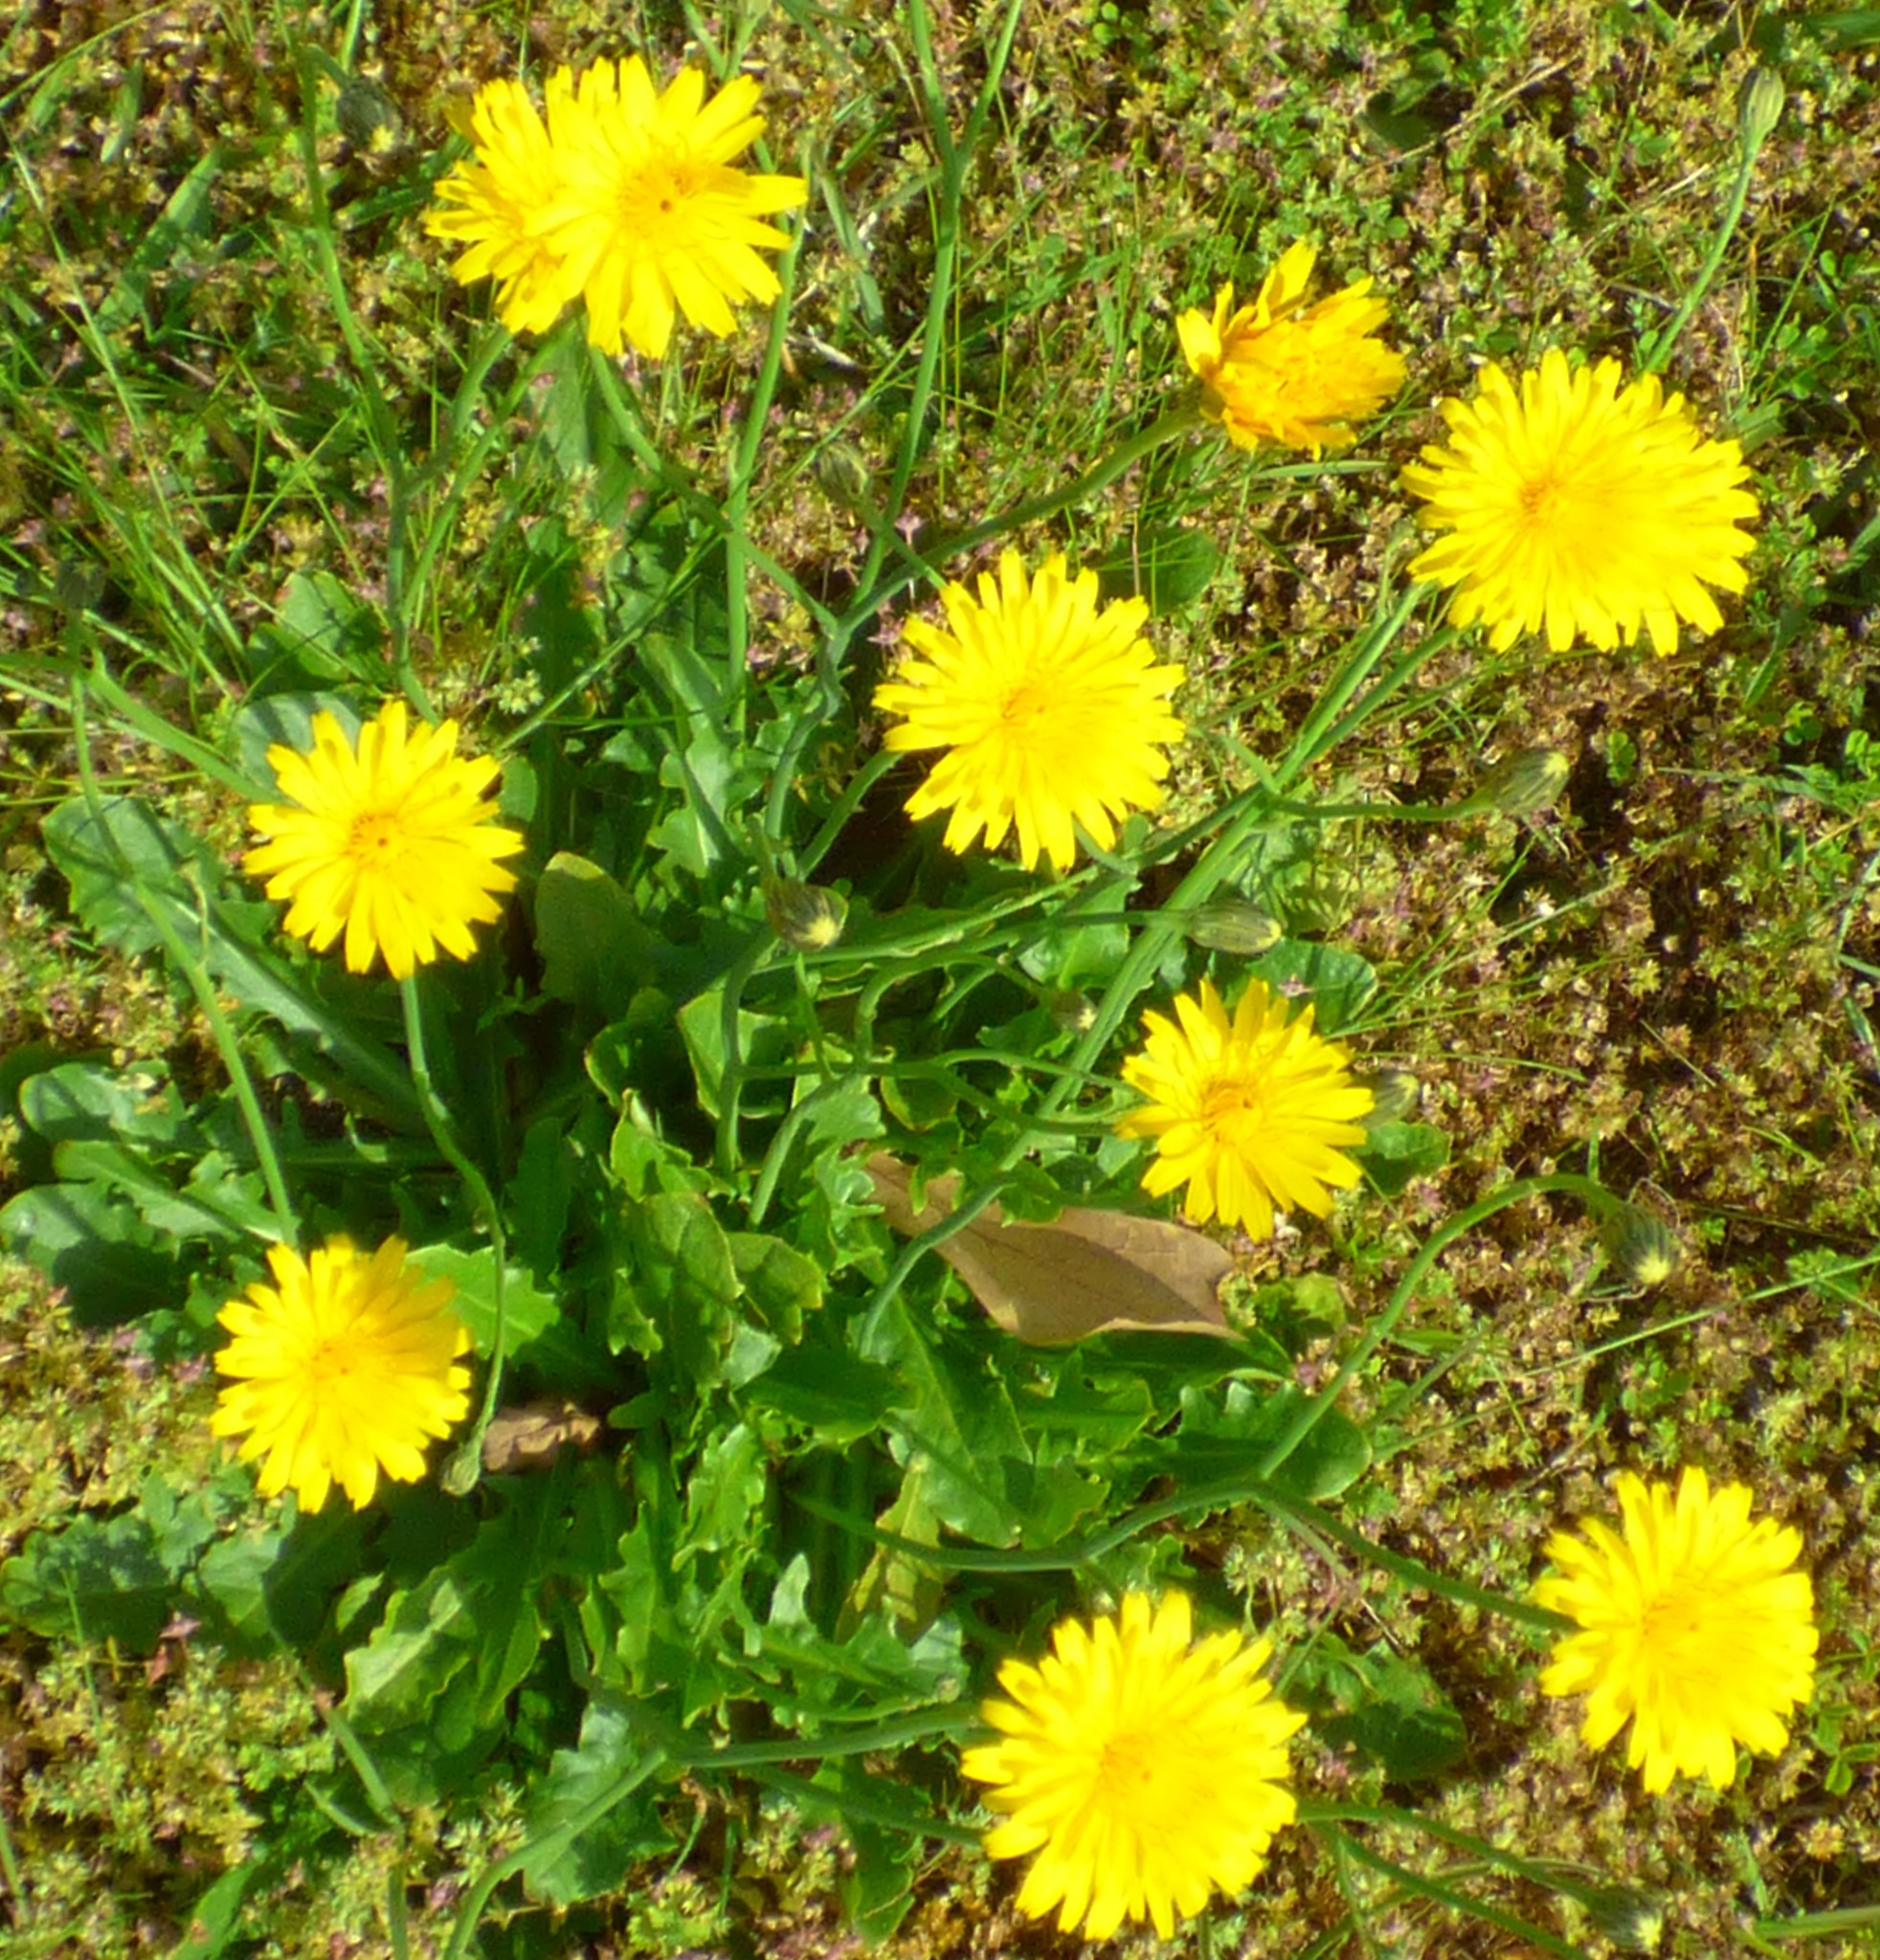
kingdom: Plantae
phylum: Tracheophyta
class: Magnoliopsida
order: Asterales
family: Asteraceae
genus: Hypochaeris
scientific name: Hypochaeris radicata
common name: Flatweed
